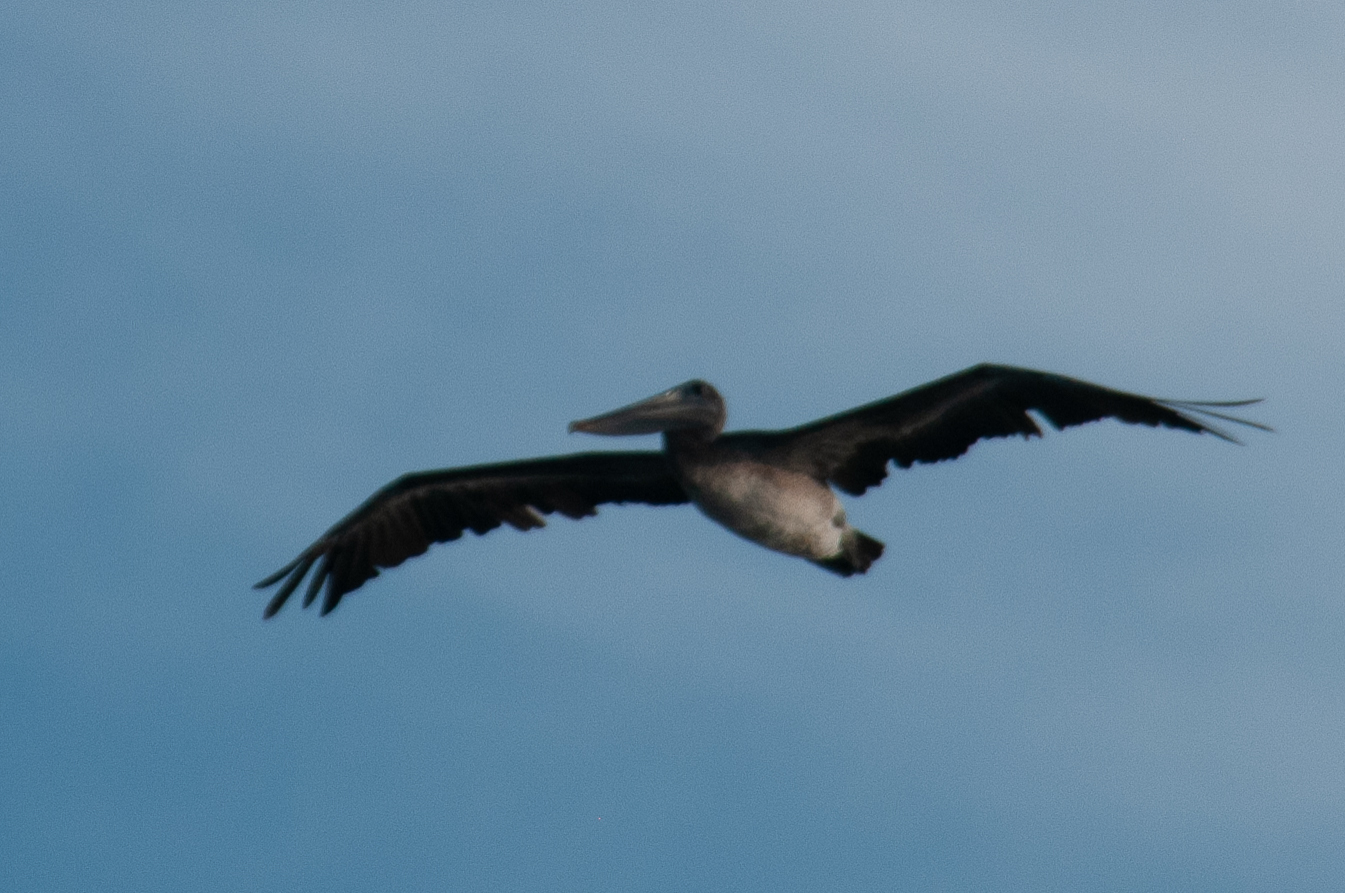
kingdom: Animalia
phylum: Chordata
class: Aves
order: Pelecaniformes
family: Pelecanidae
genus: Pelecanus
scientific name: Pelecanus occidentalis
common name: Brown pelican
